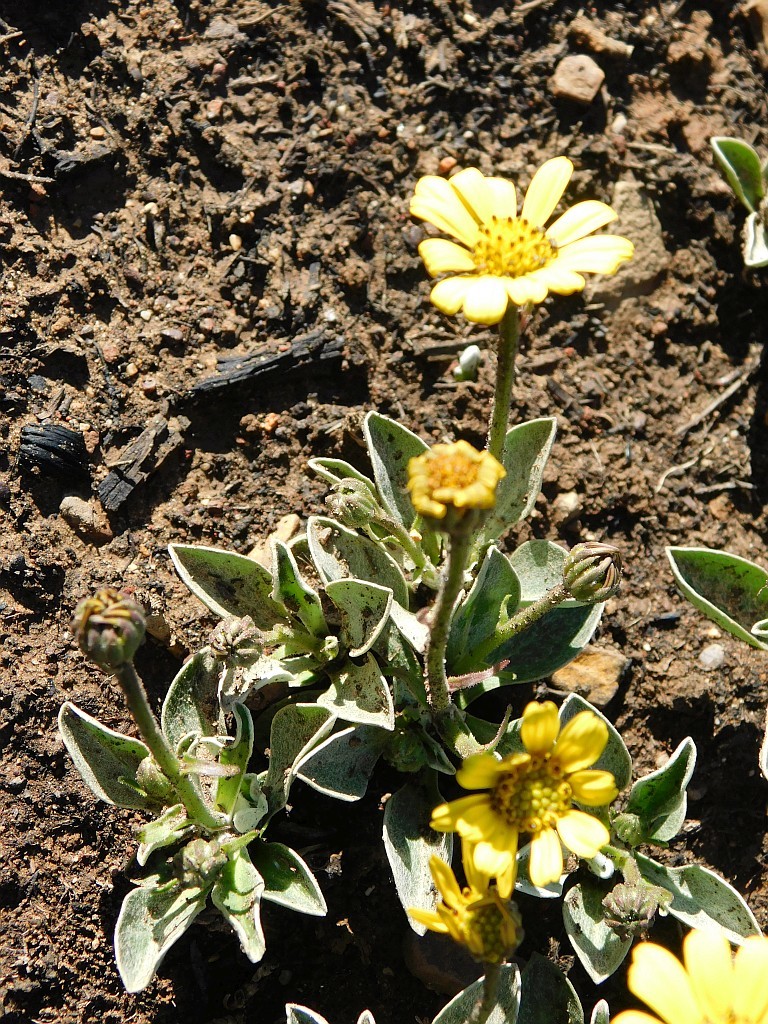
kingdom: Plantae
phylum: Tracheophyta
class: Magnoliopsida
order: Asterales
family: Asteraceae
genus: Osteospermum
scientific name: Osteospermum tomentosum
